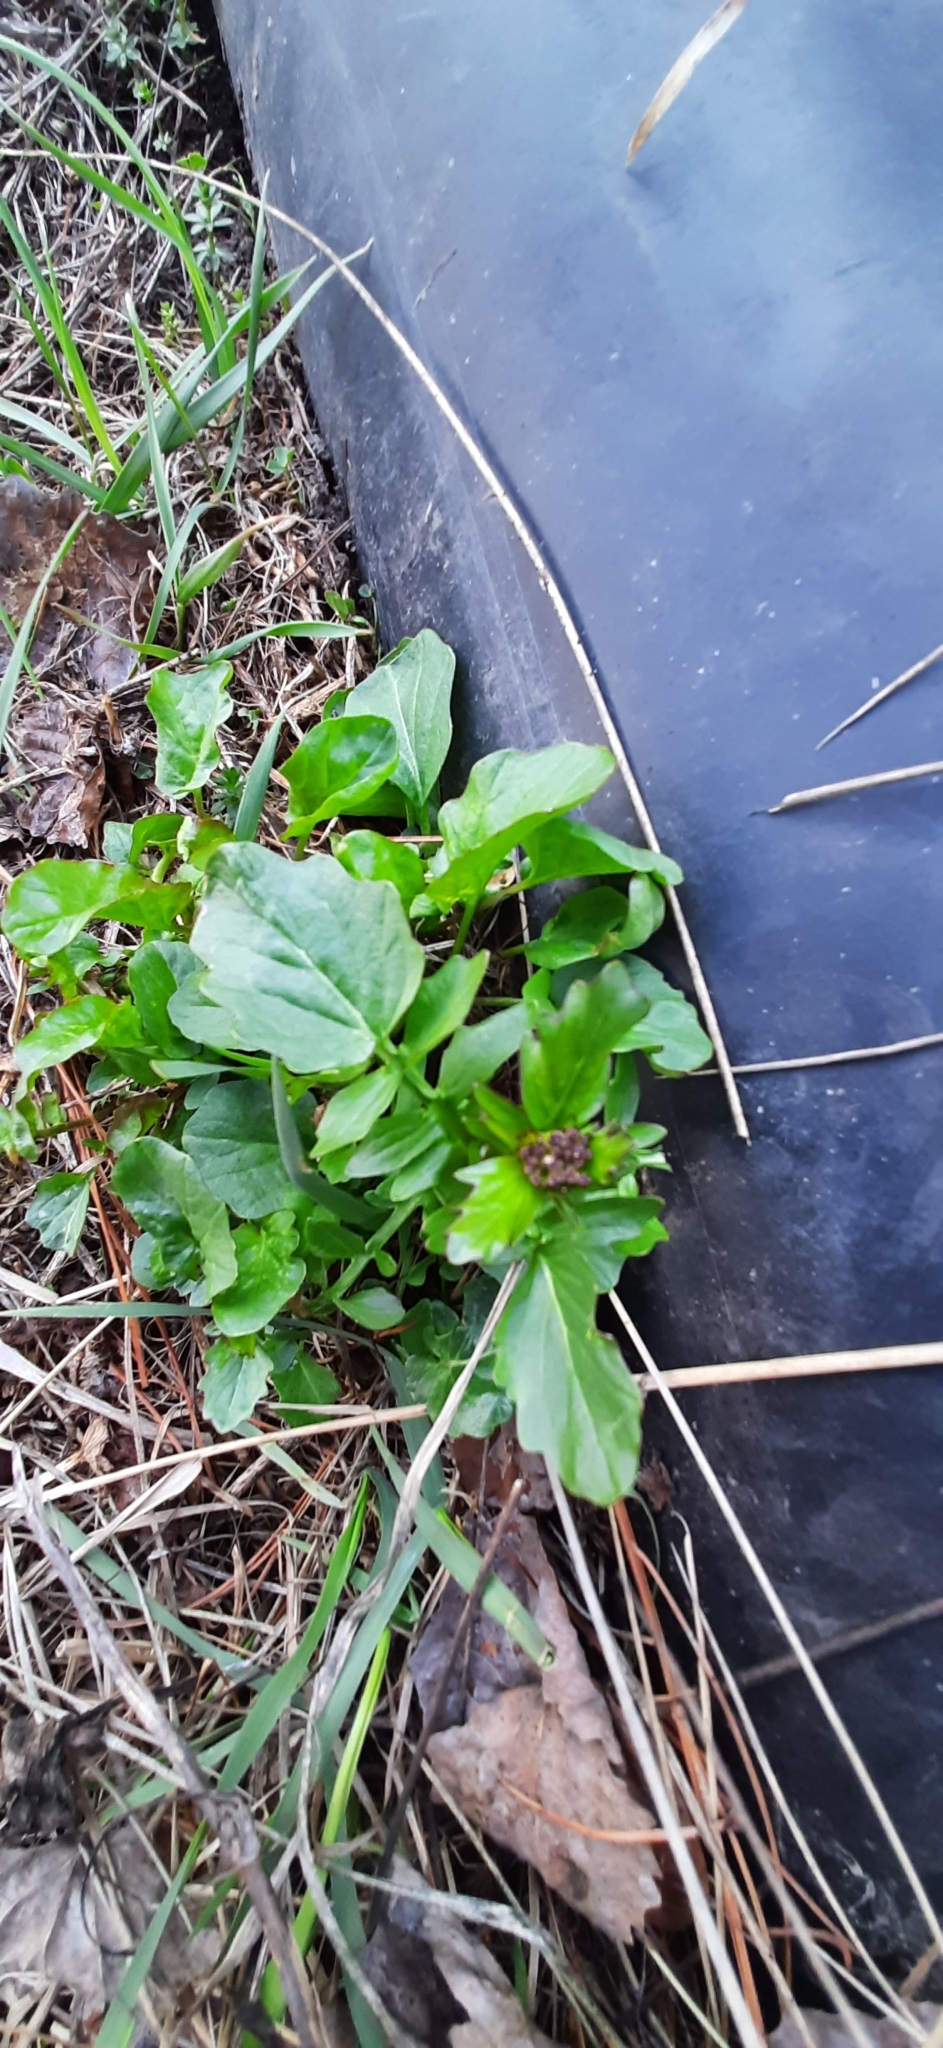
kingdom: Plantae
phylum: Tracheophyta
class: Magnoliopsida
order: Brassicales
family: Brassicaceae
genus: Barbarea
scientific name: Barbarea vulgaris
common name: Cressy-greens
